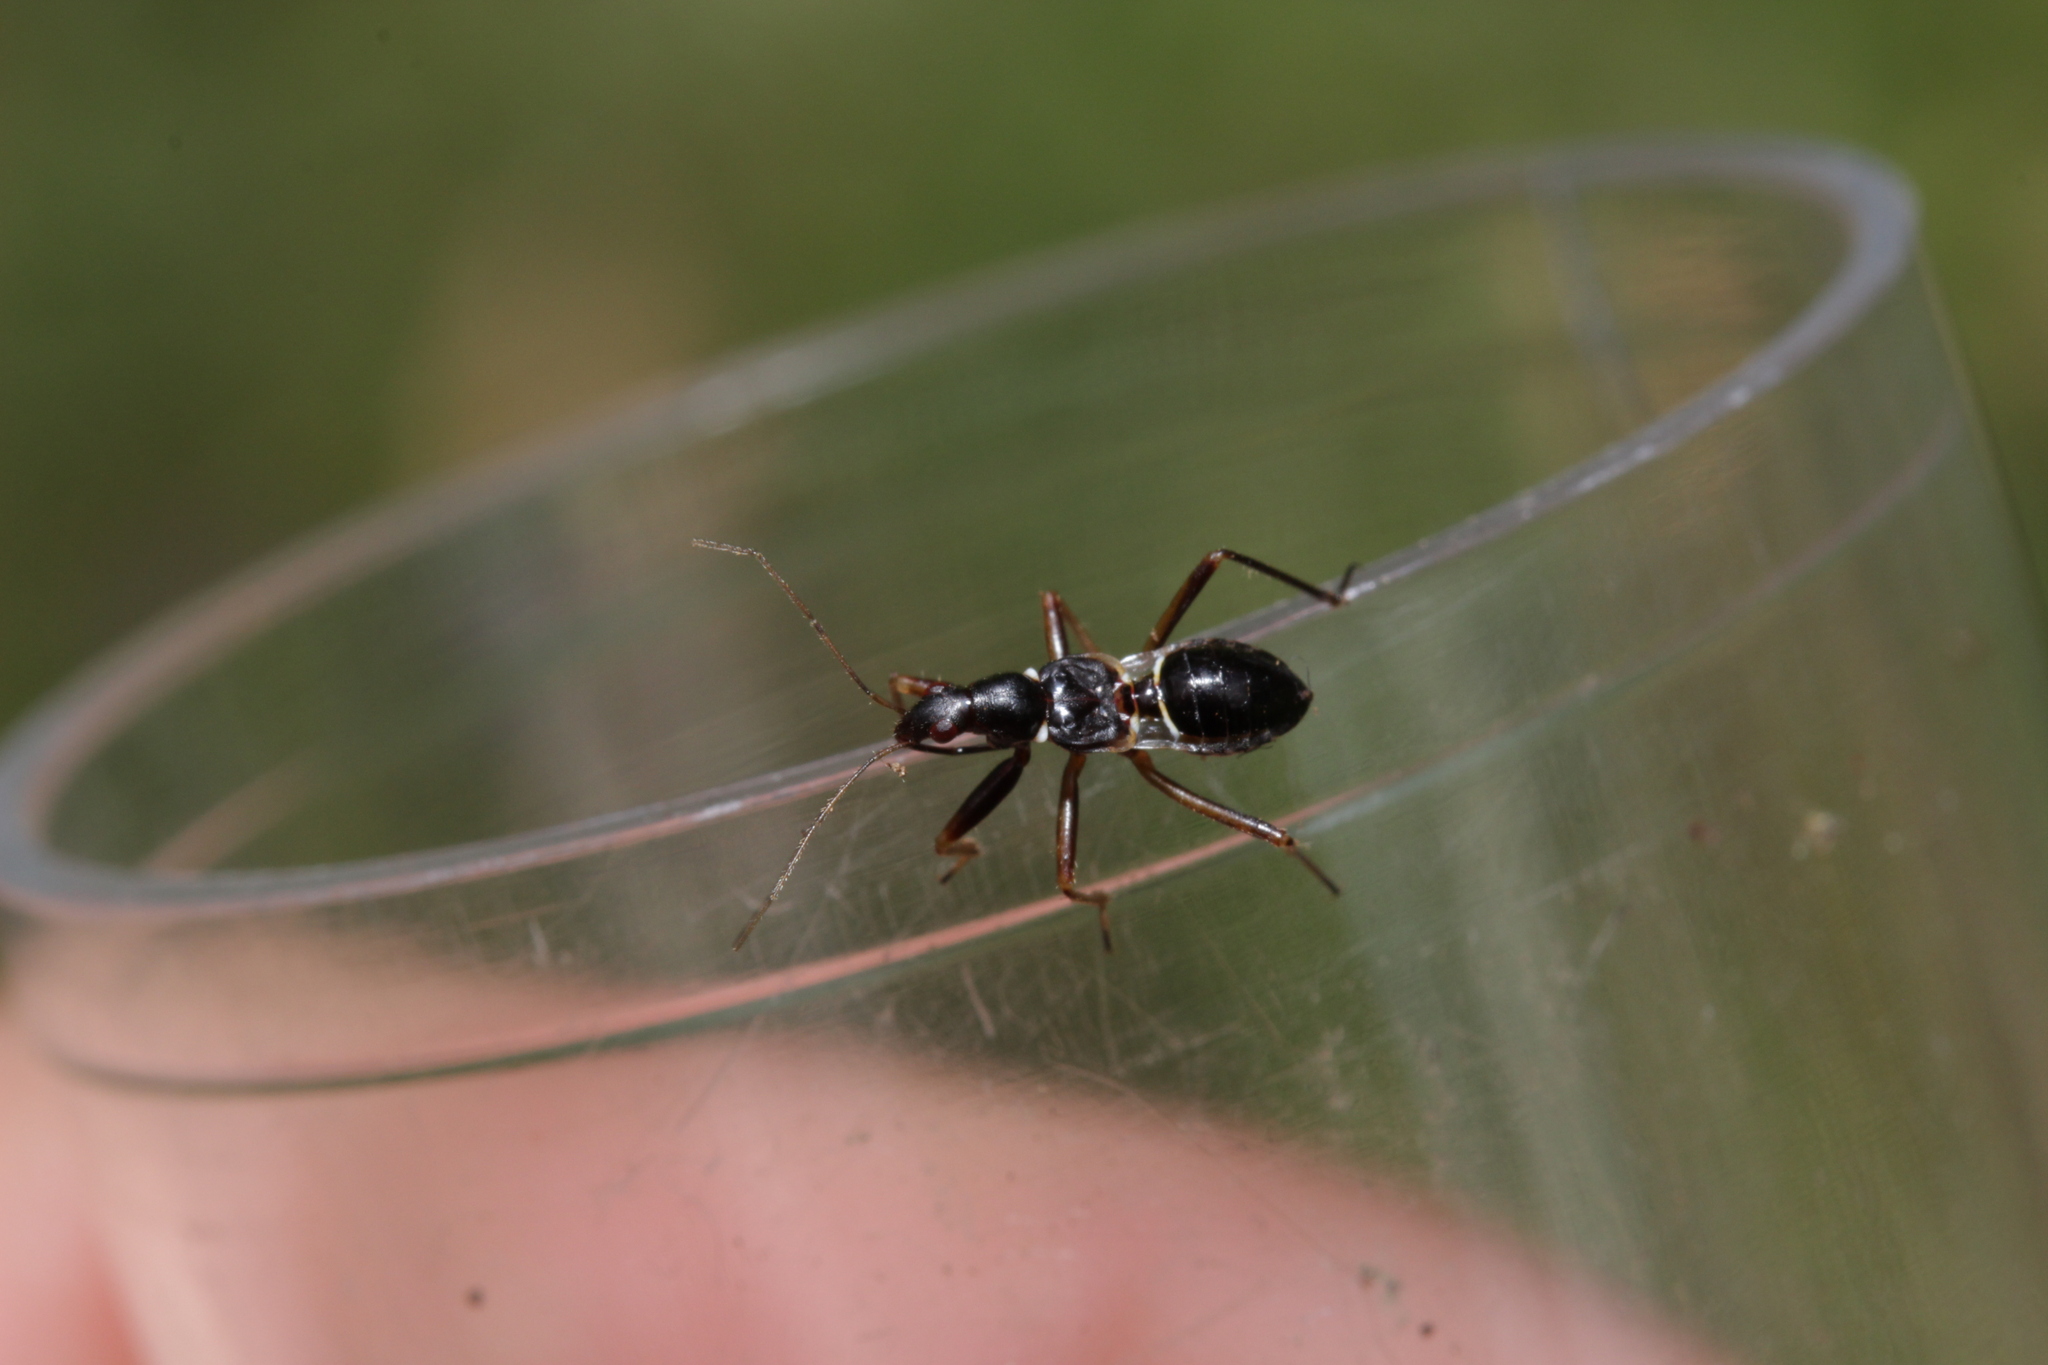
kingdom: Animalia
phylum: Arthropoda
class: Insecta
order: Hemiptera
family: Nabidae
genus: Himacerus
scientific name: Himacerus mirmicoides
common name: Ant damsel bug
